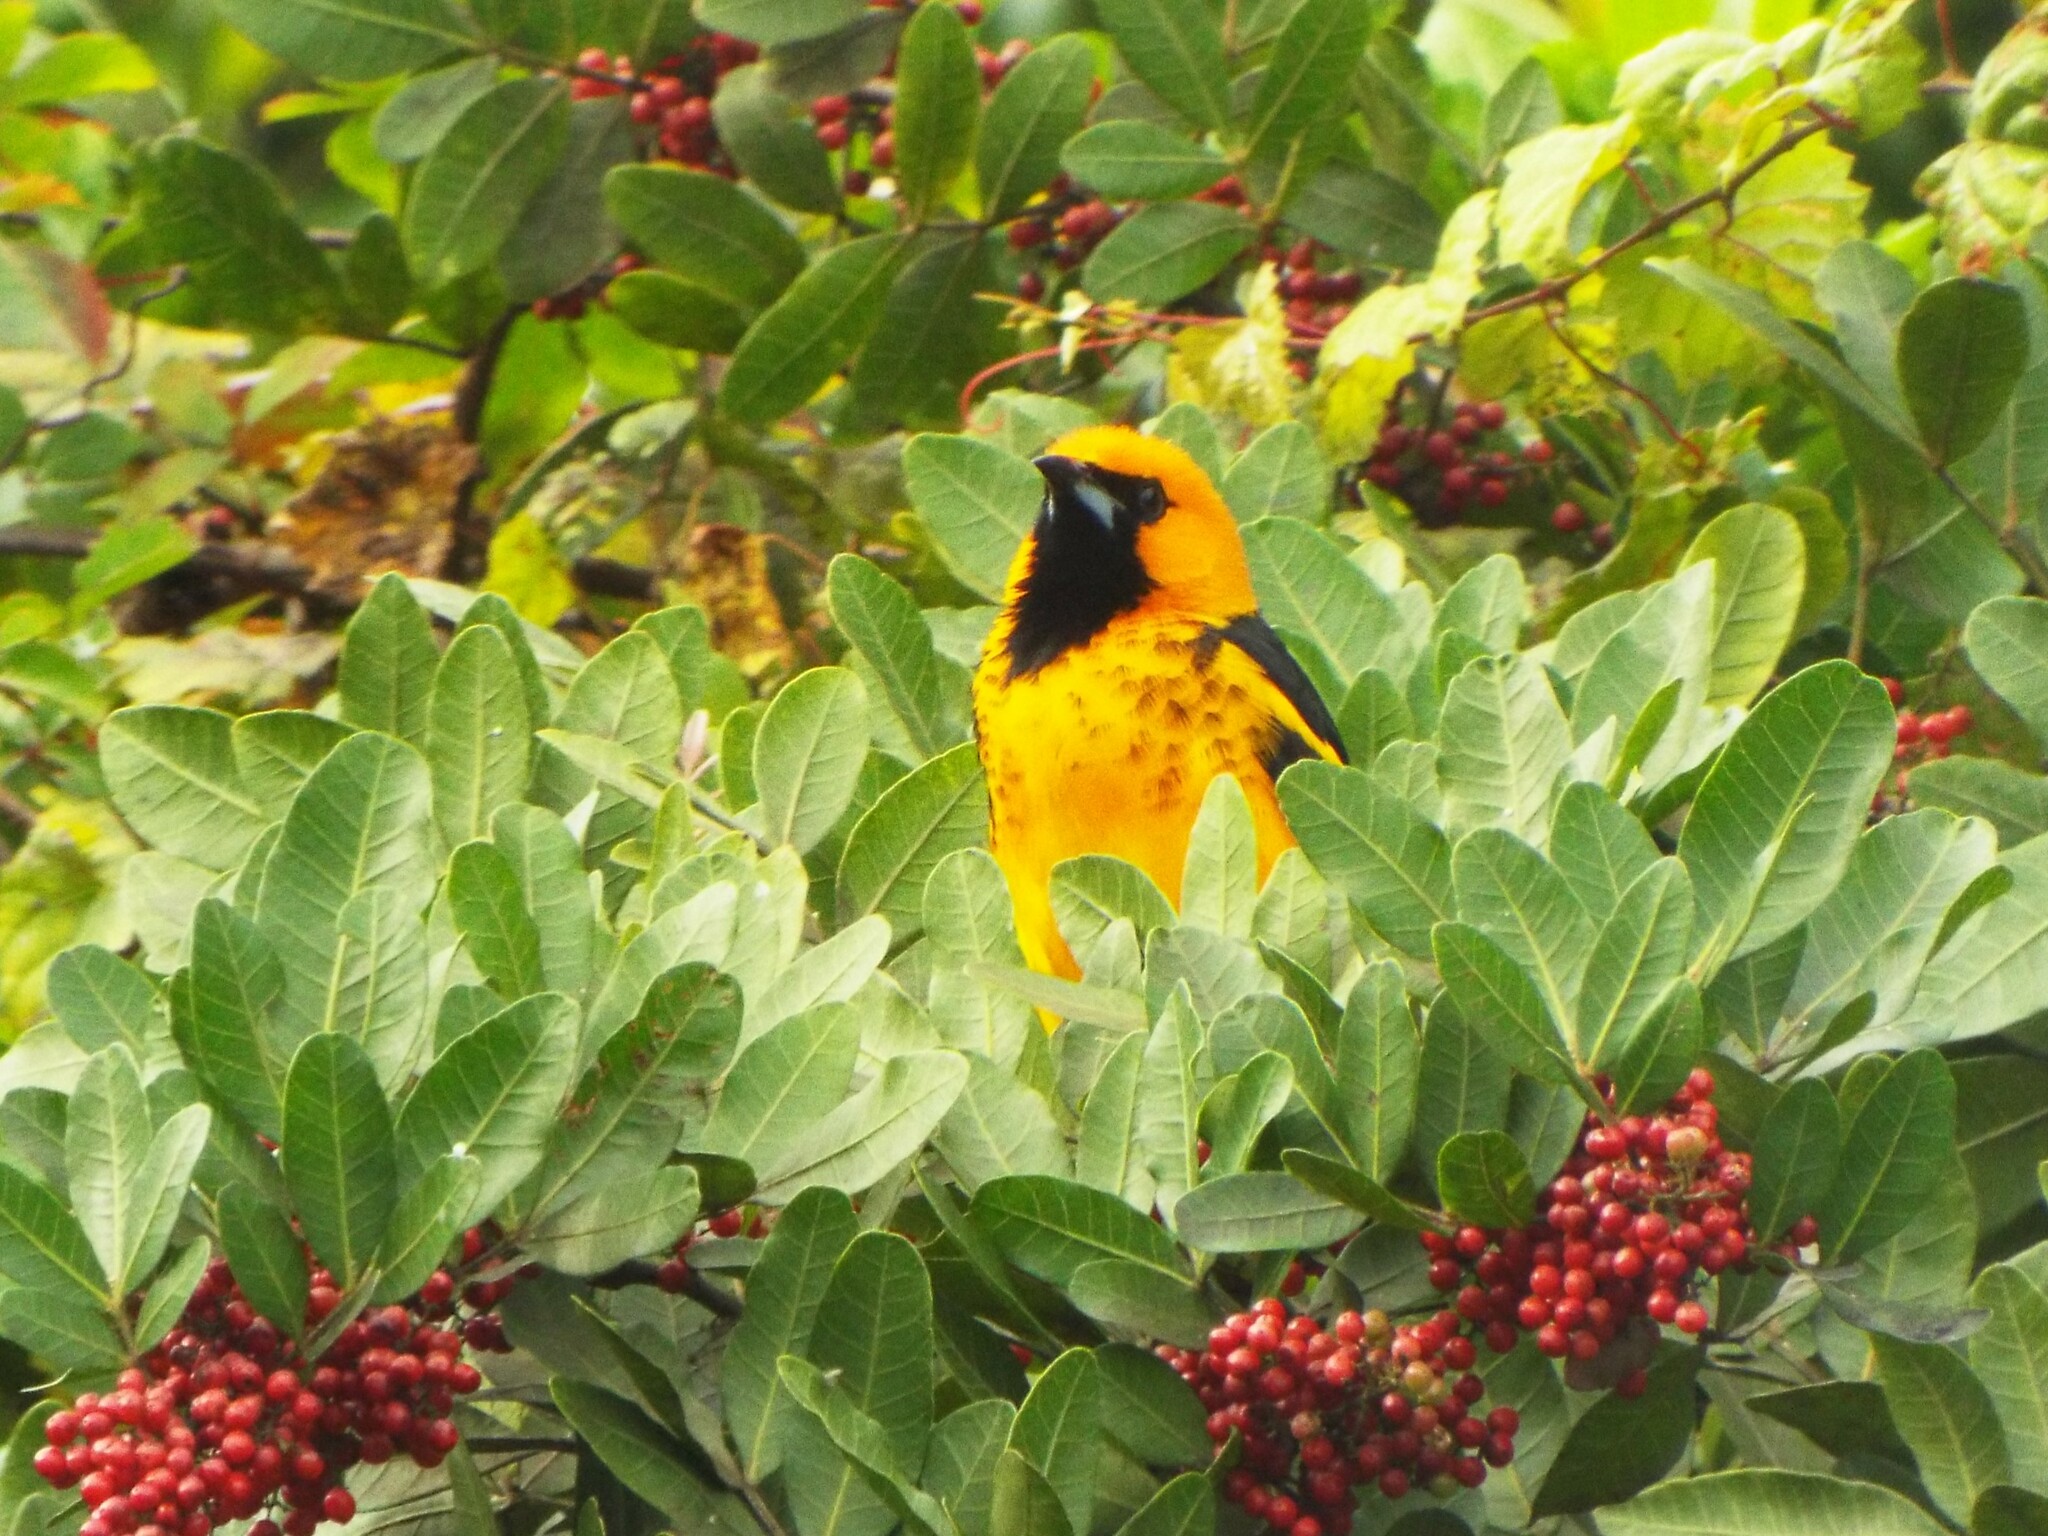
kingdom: Animalia
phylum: Chordata
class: Aves
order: Passeriformes
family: Icteridae
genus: Icterus
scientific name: Icterus pectoralis
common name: Spot-breasted oriole
